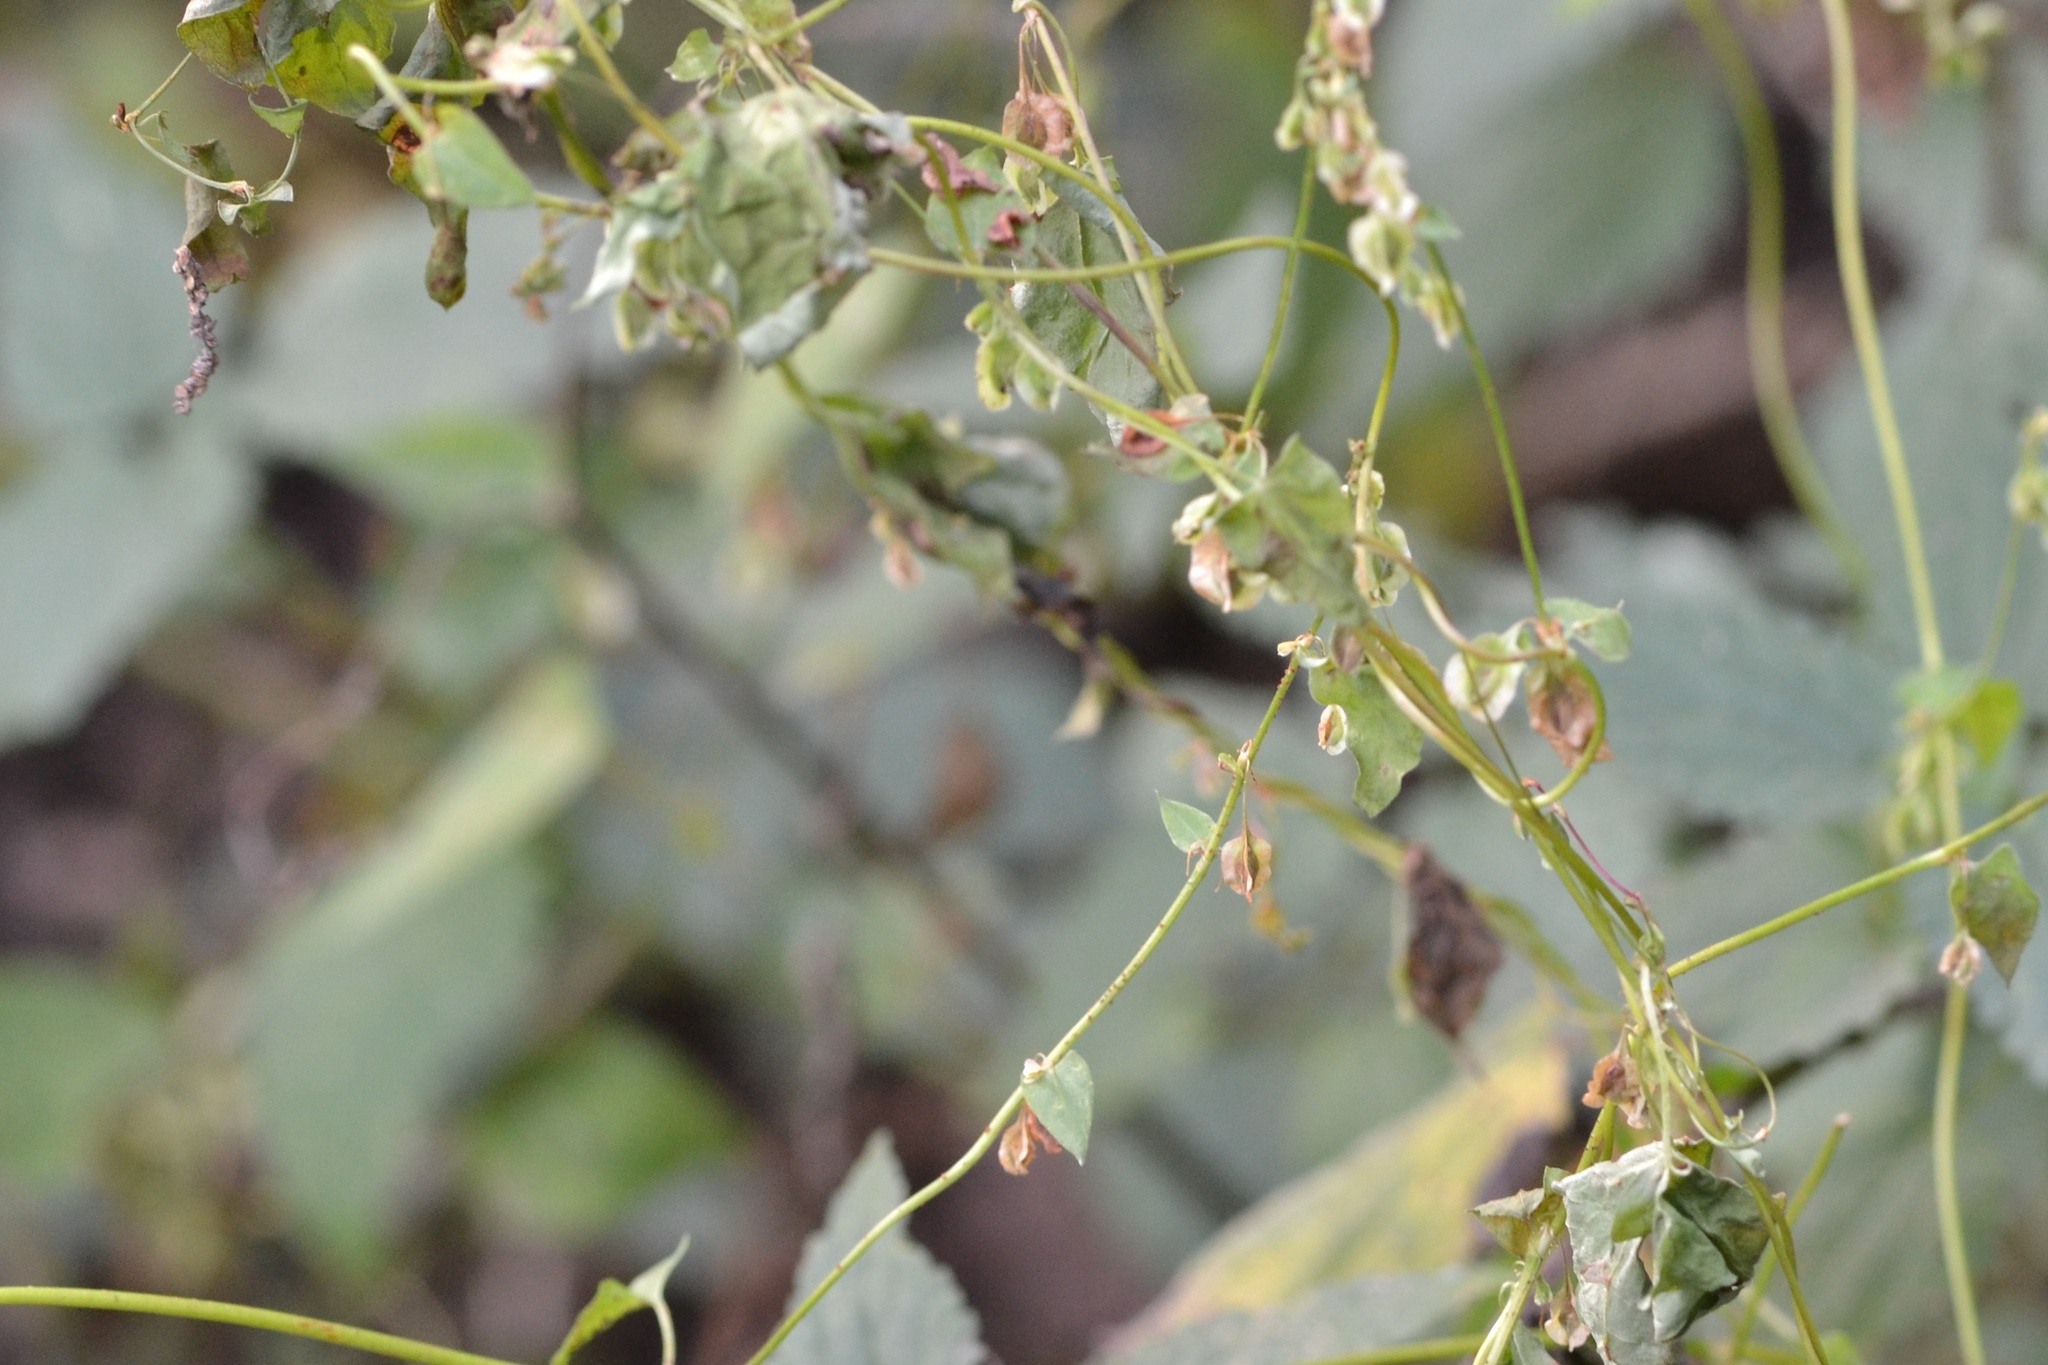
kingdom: Plantae
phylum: Tracheophyta
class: Magnoliopsida
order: Caryophyllales
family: Polygonaceae
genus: Fallopia
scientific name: Fallopia dumetorum
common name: Copse-bindweed
